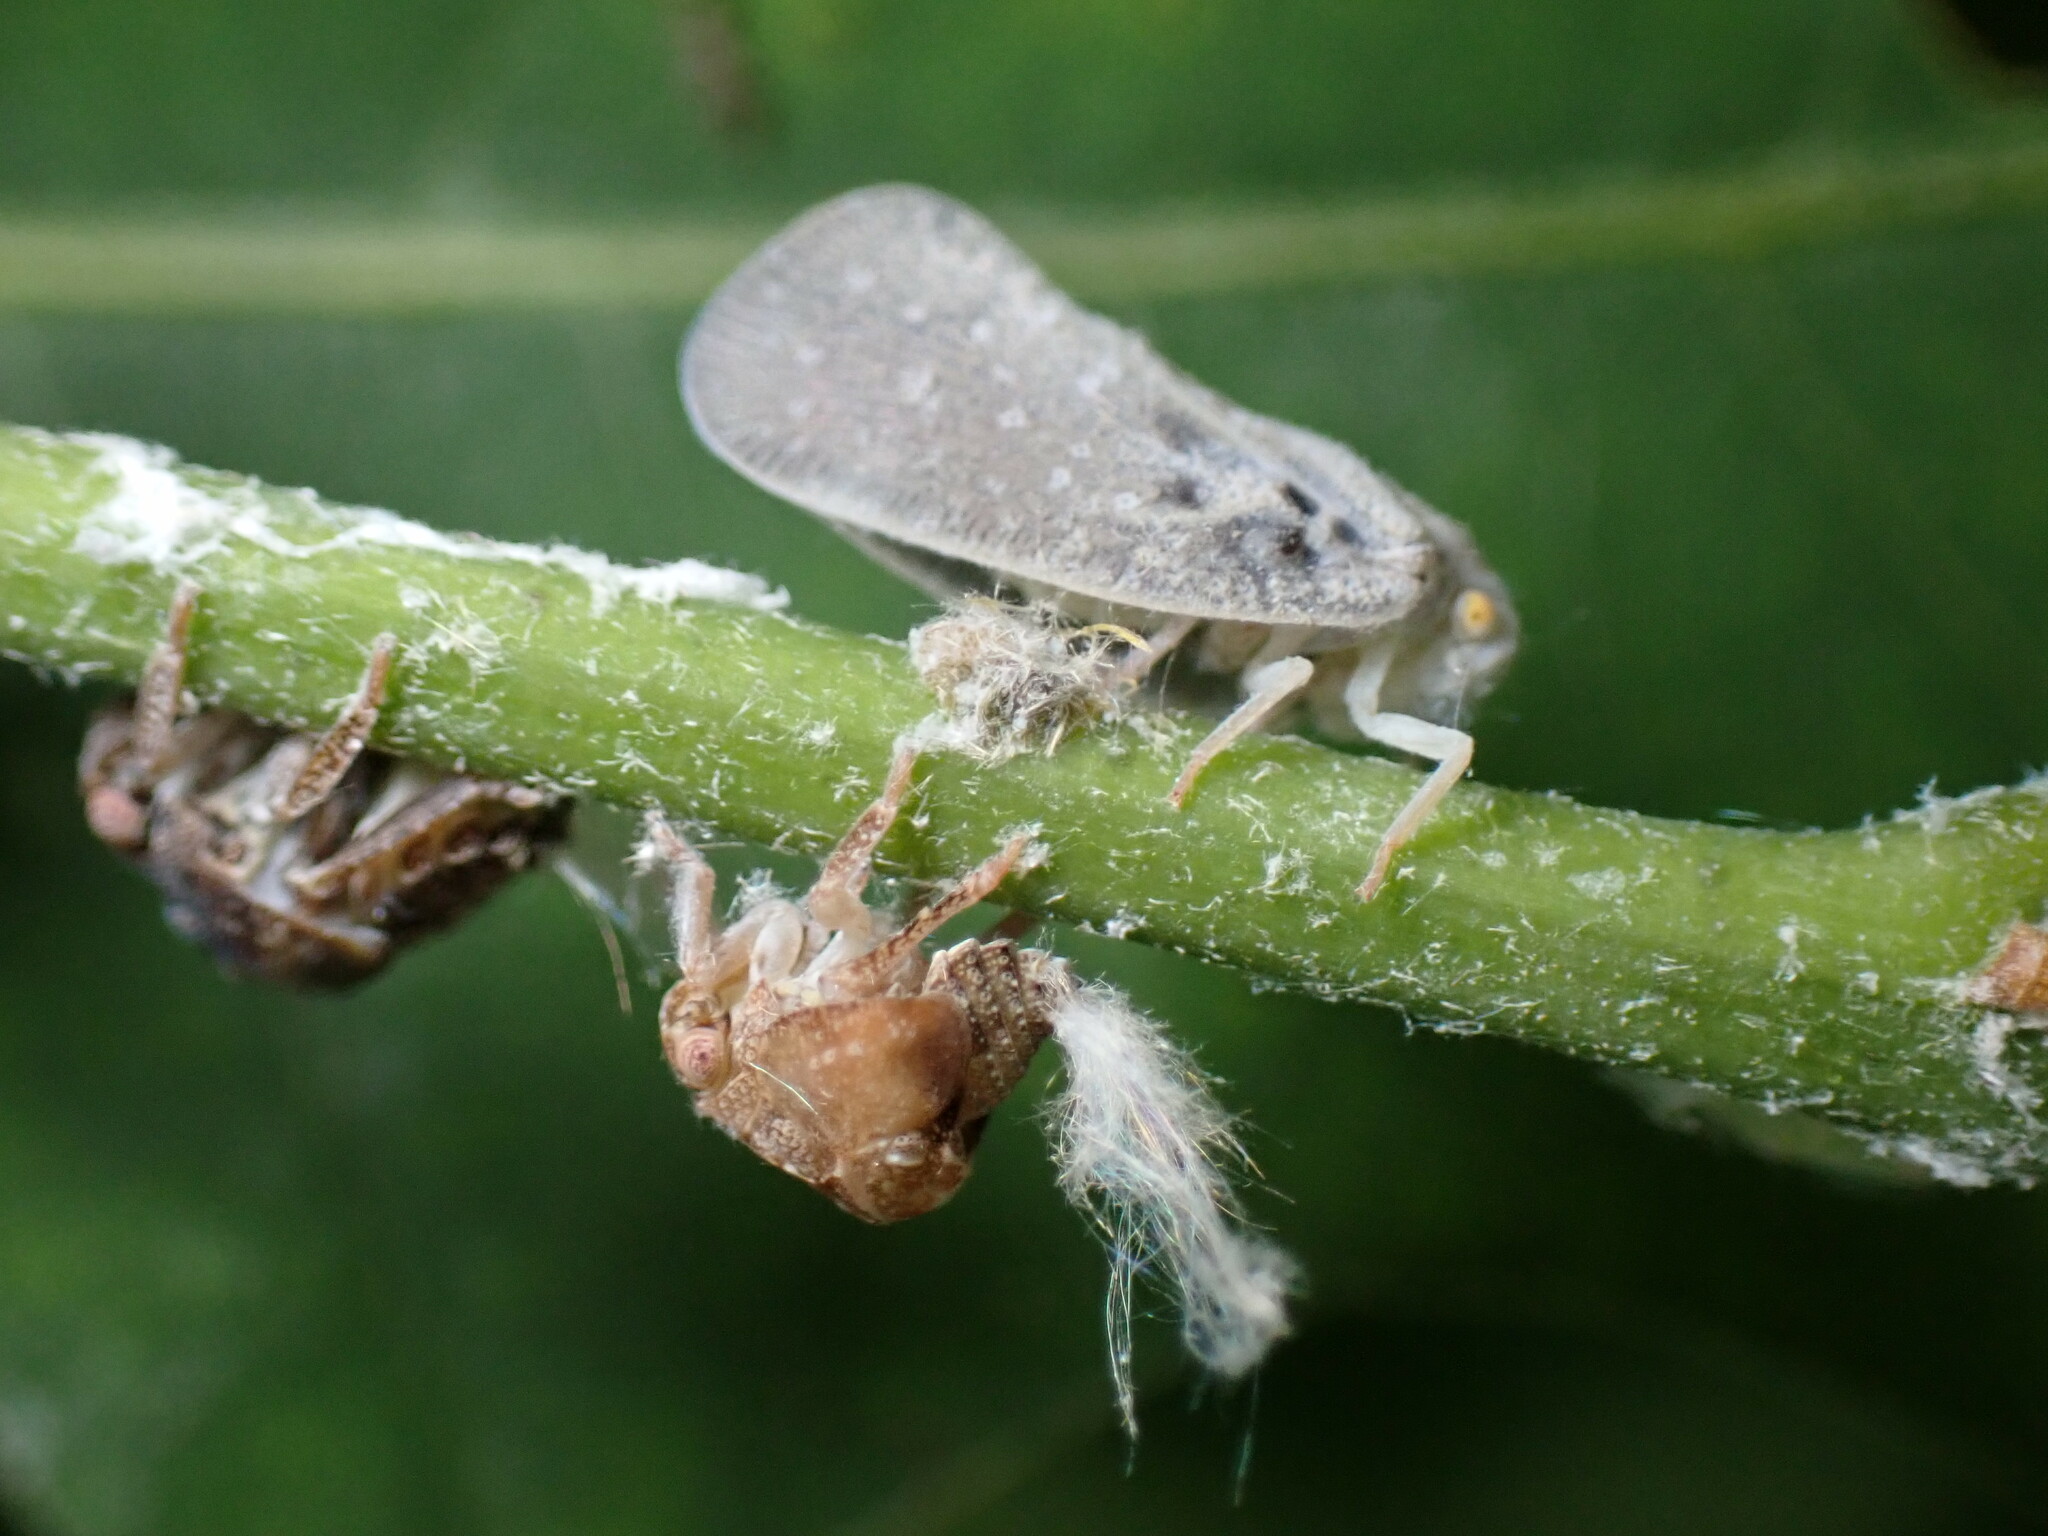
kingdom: Animalia
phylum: Arthropoda
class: Insecta
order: Hemiptera
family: Flatidae
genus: Metcalfa
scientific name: Metcalfa pruinosa
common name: Citrus flatid planthopper
